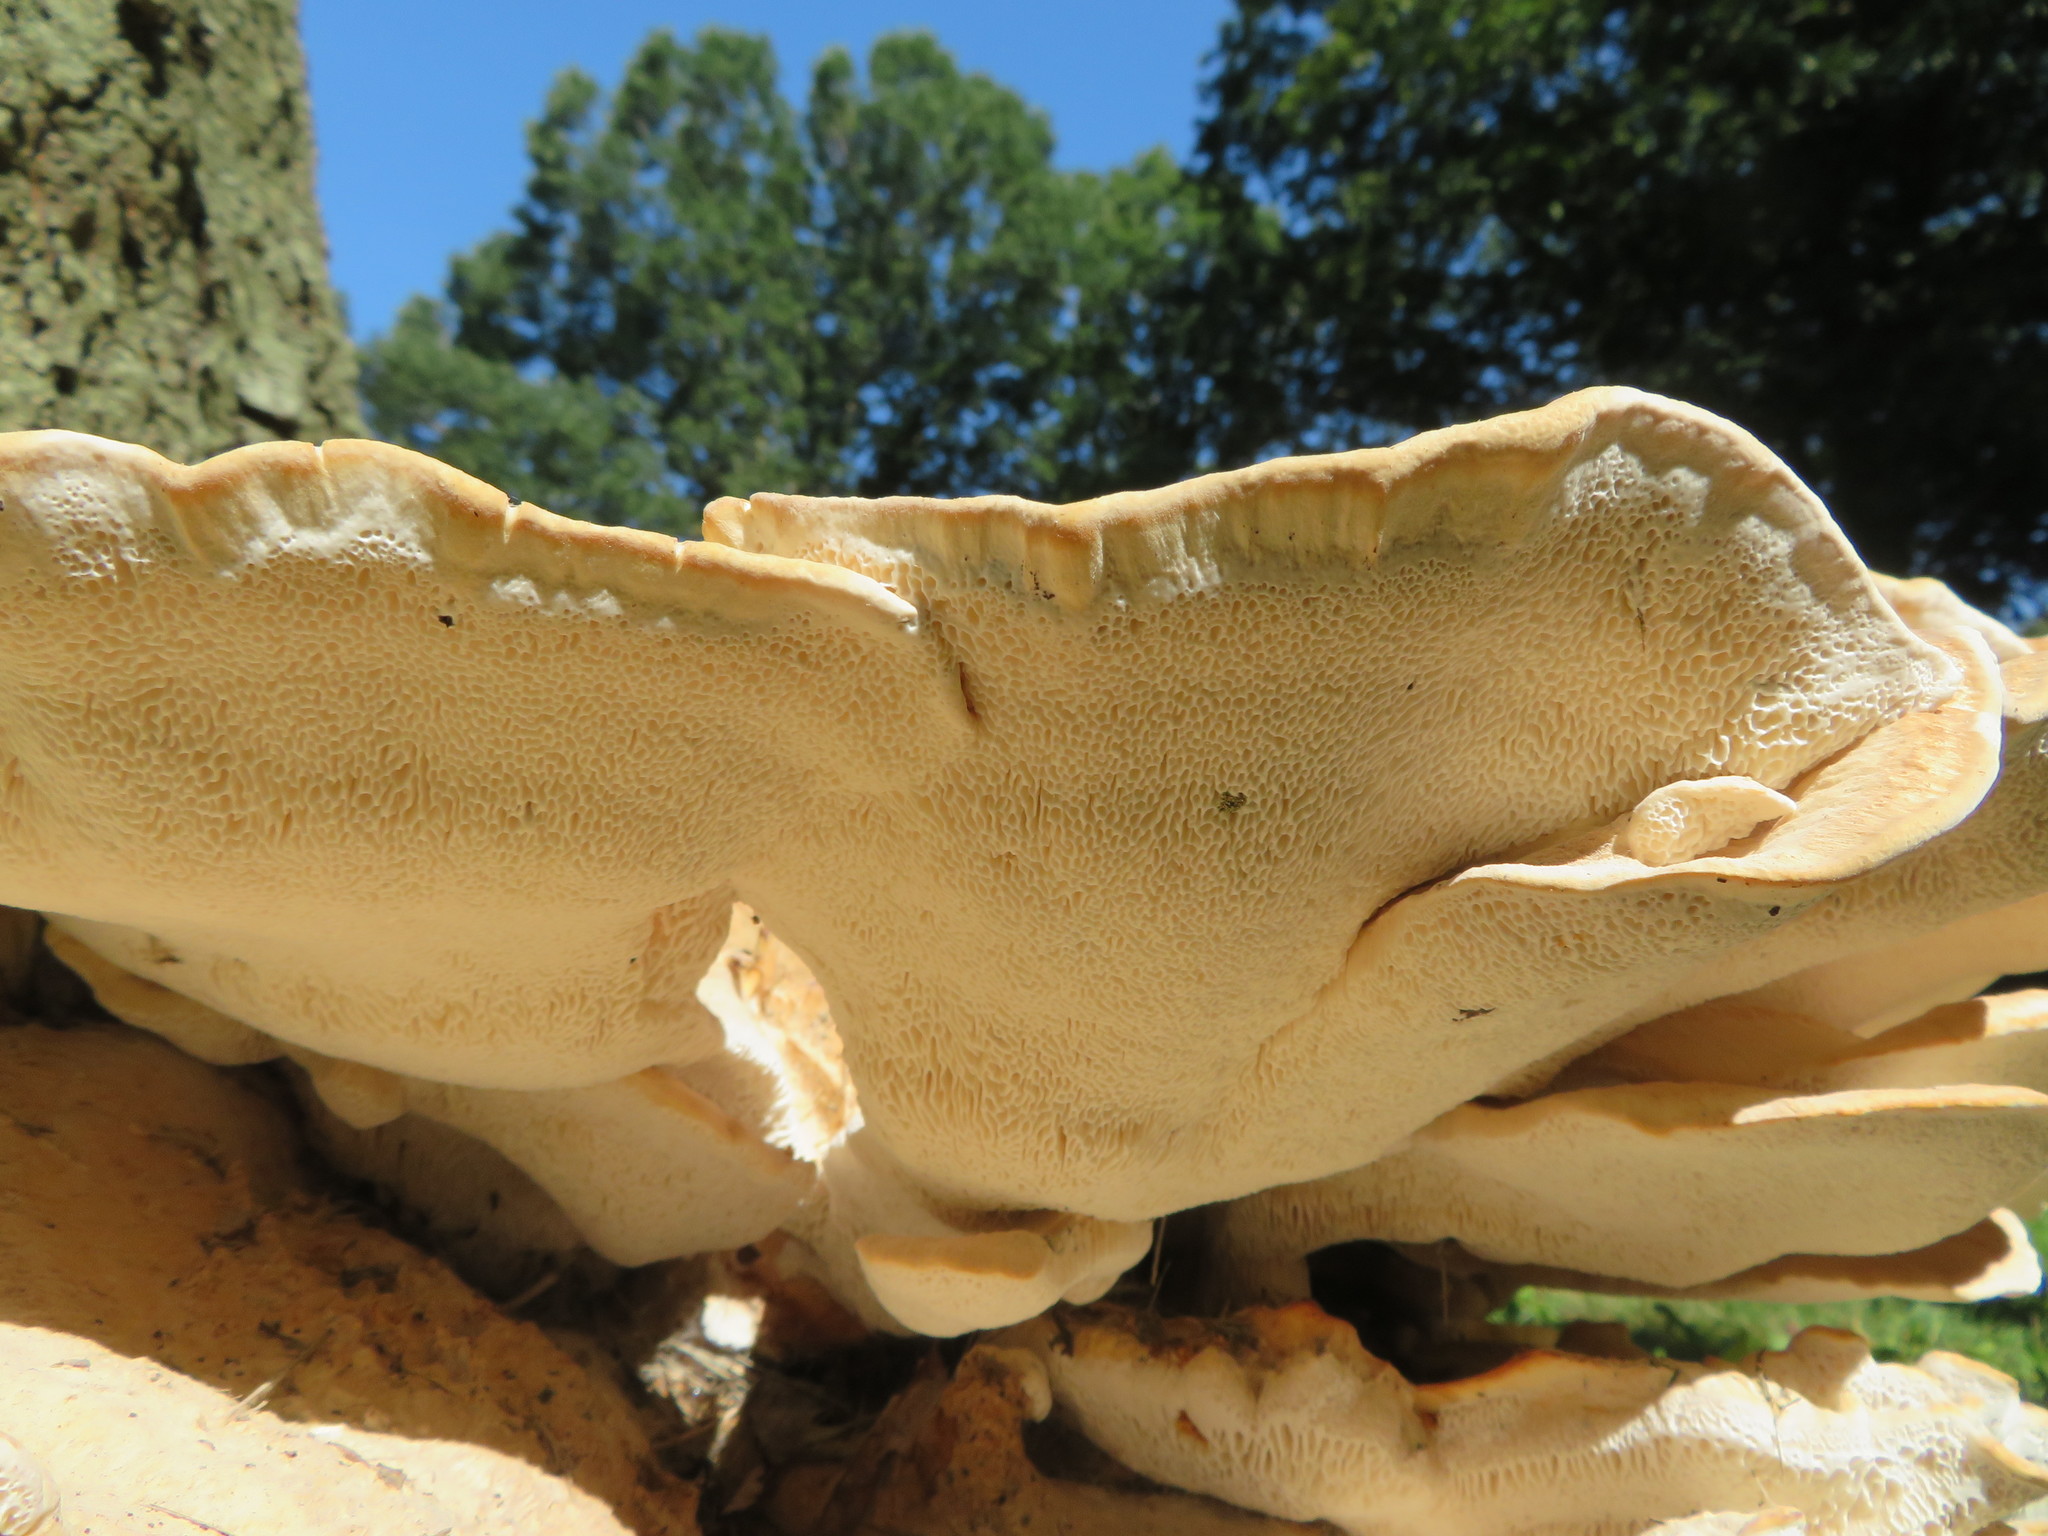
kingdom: Fungi
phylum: Basidiomycota
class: Agaricomycetes
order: Russulales
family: Bondarzewiaceae
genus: Bondarzewia
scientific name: Bondarzewia berkeleyi
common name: Berkeley's polypore
